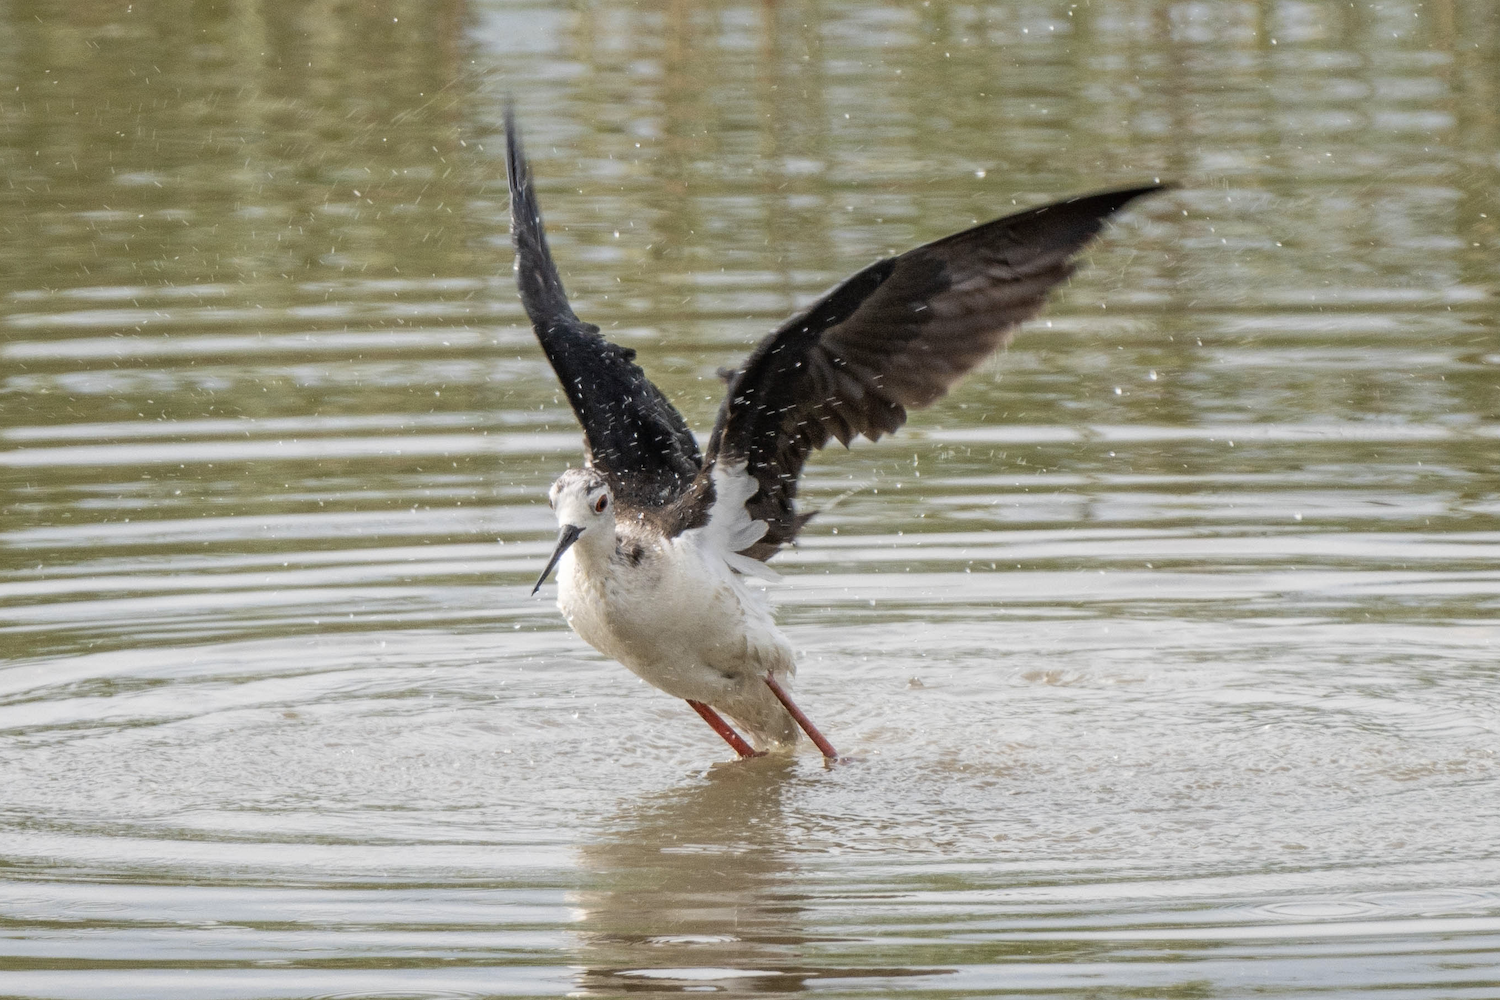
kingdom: Animalia
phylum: Chordata
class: Aves
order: Charadriiformes
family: Recurvirostridae
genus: Himantopus
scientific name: Himantopus himantopus
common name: Black-winged stilt
